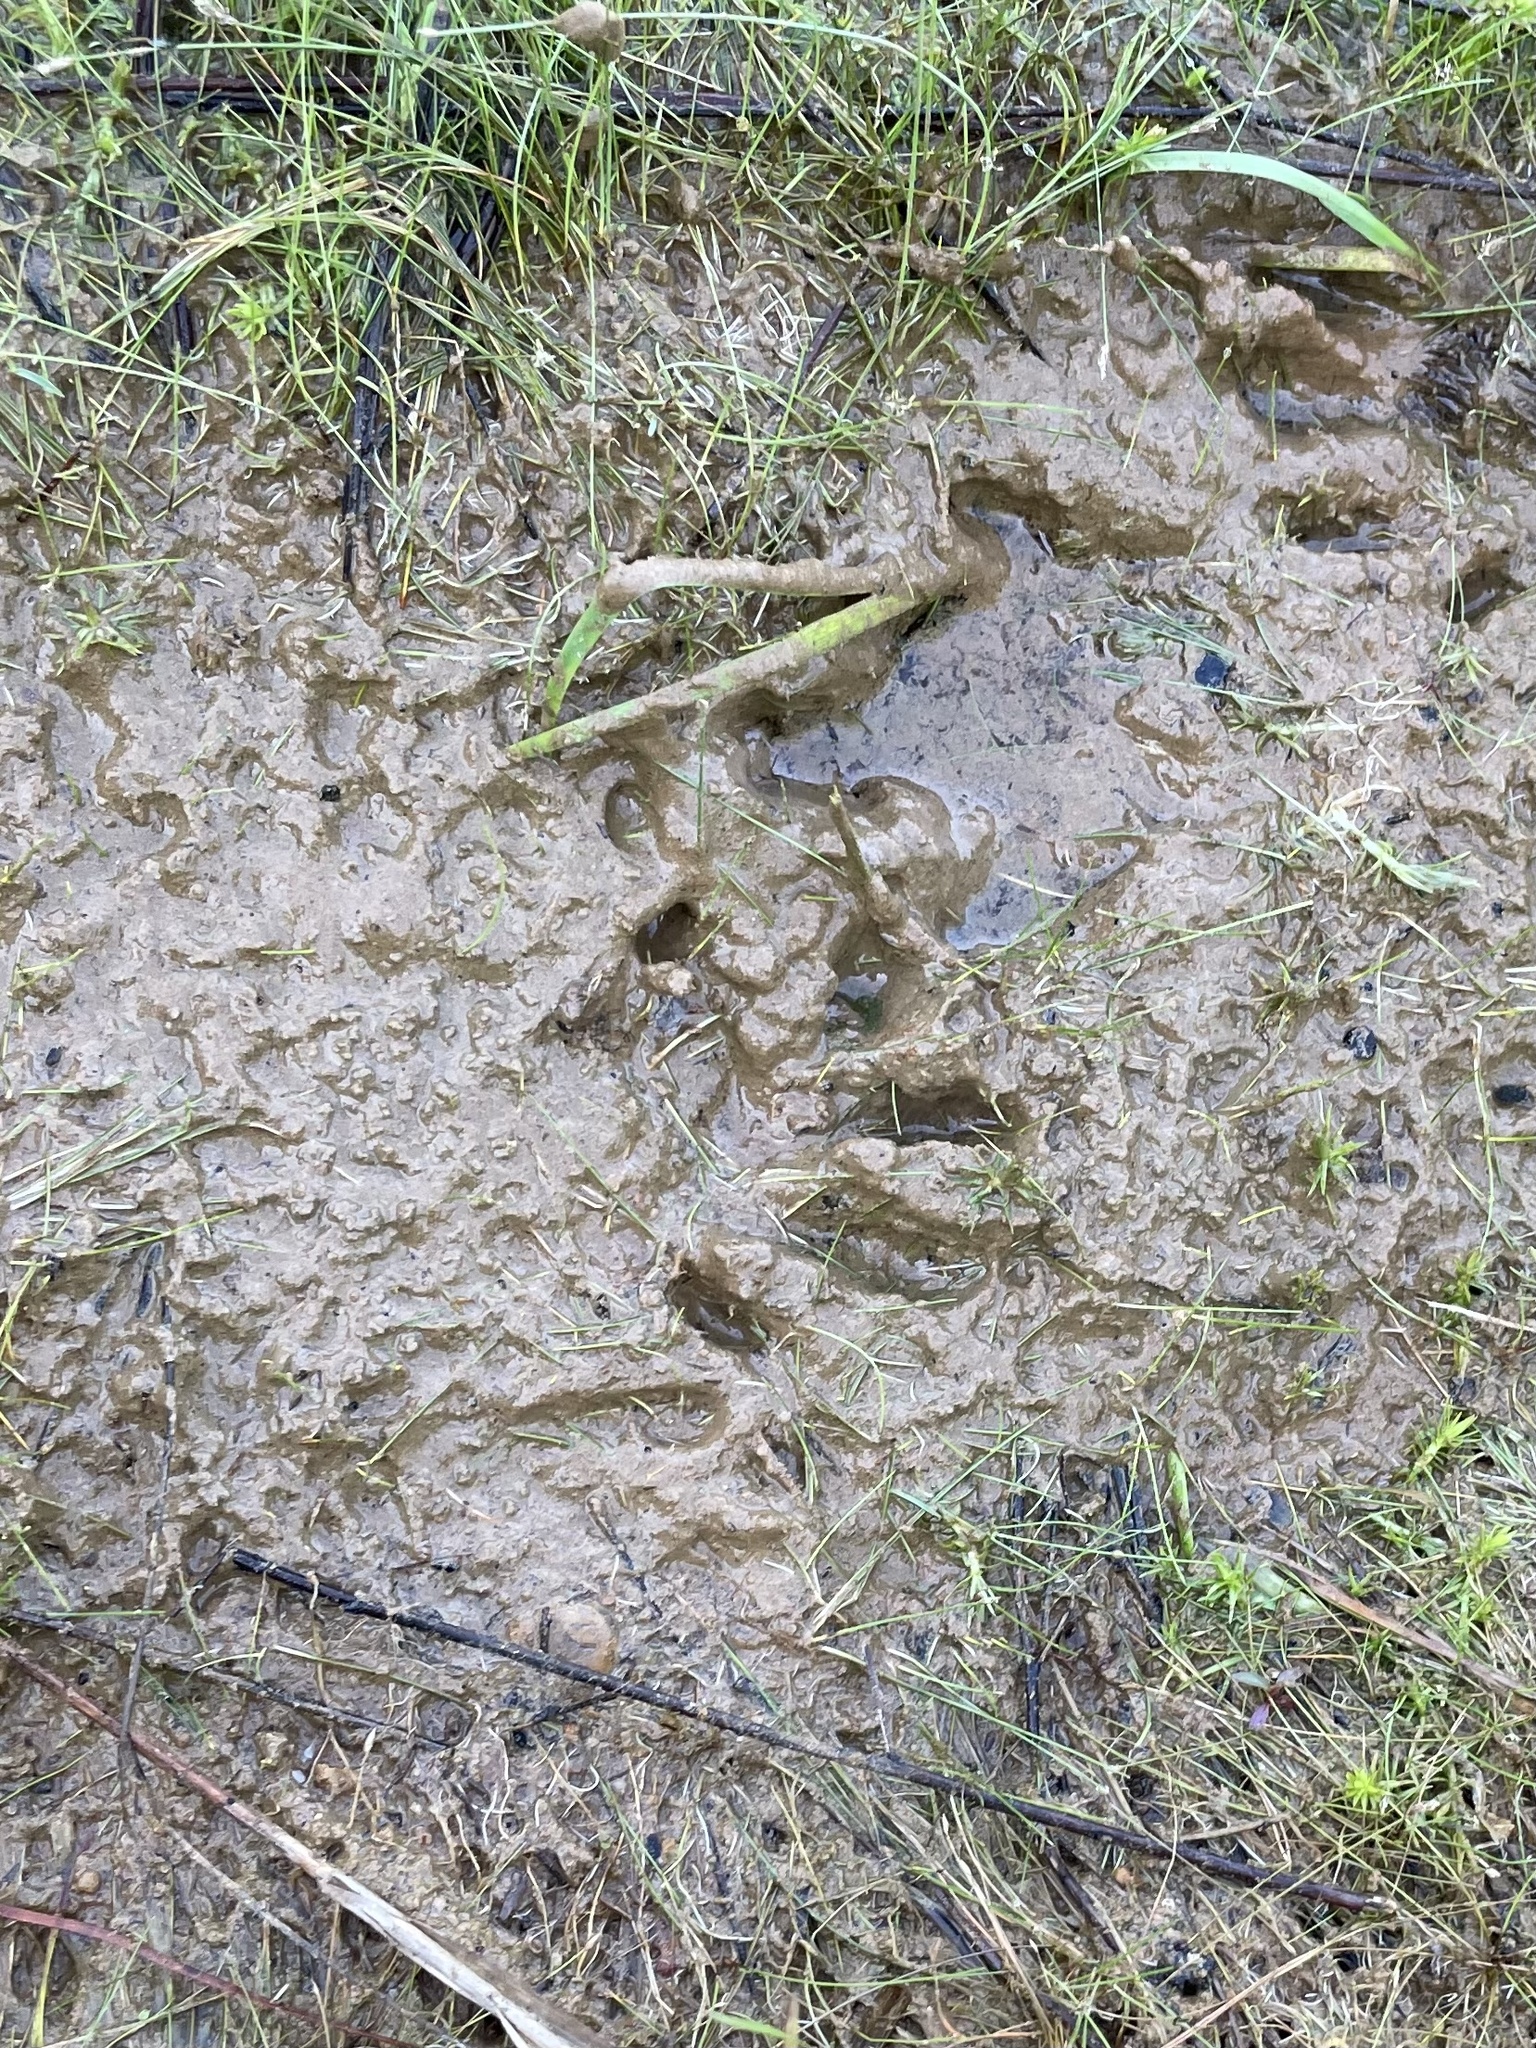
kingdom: Animalia
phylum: Chordata
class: Mammalia
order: Carnivora
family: Procyonidae
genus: Procyon
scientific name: Procyon lotor
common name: Raccoon
